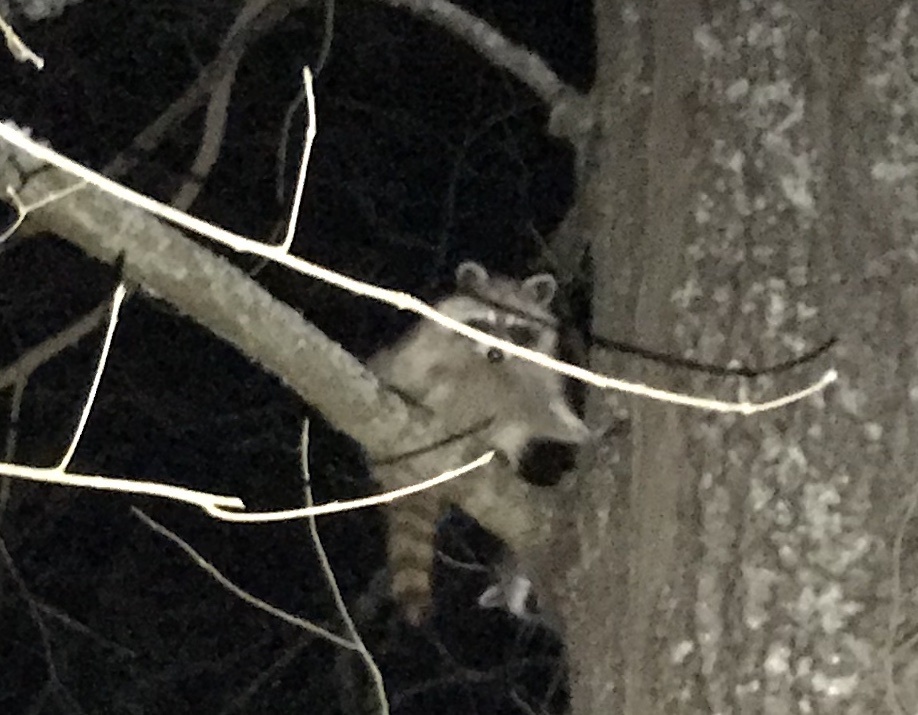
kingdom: Animalia
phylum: Chordata
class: Mammalia
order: Carnivora
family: Procyonidae
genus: Procyon
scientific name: Procyon lotor
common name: Raccoon
